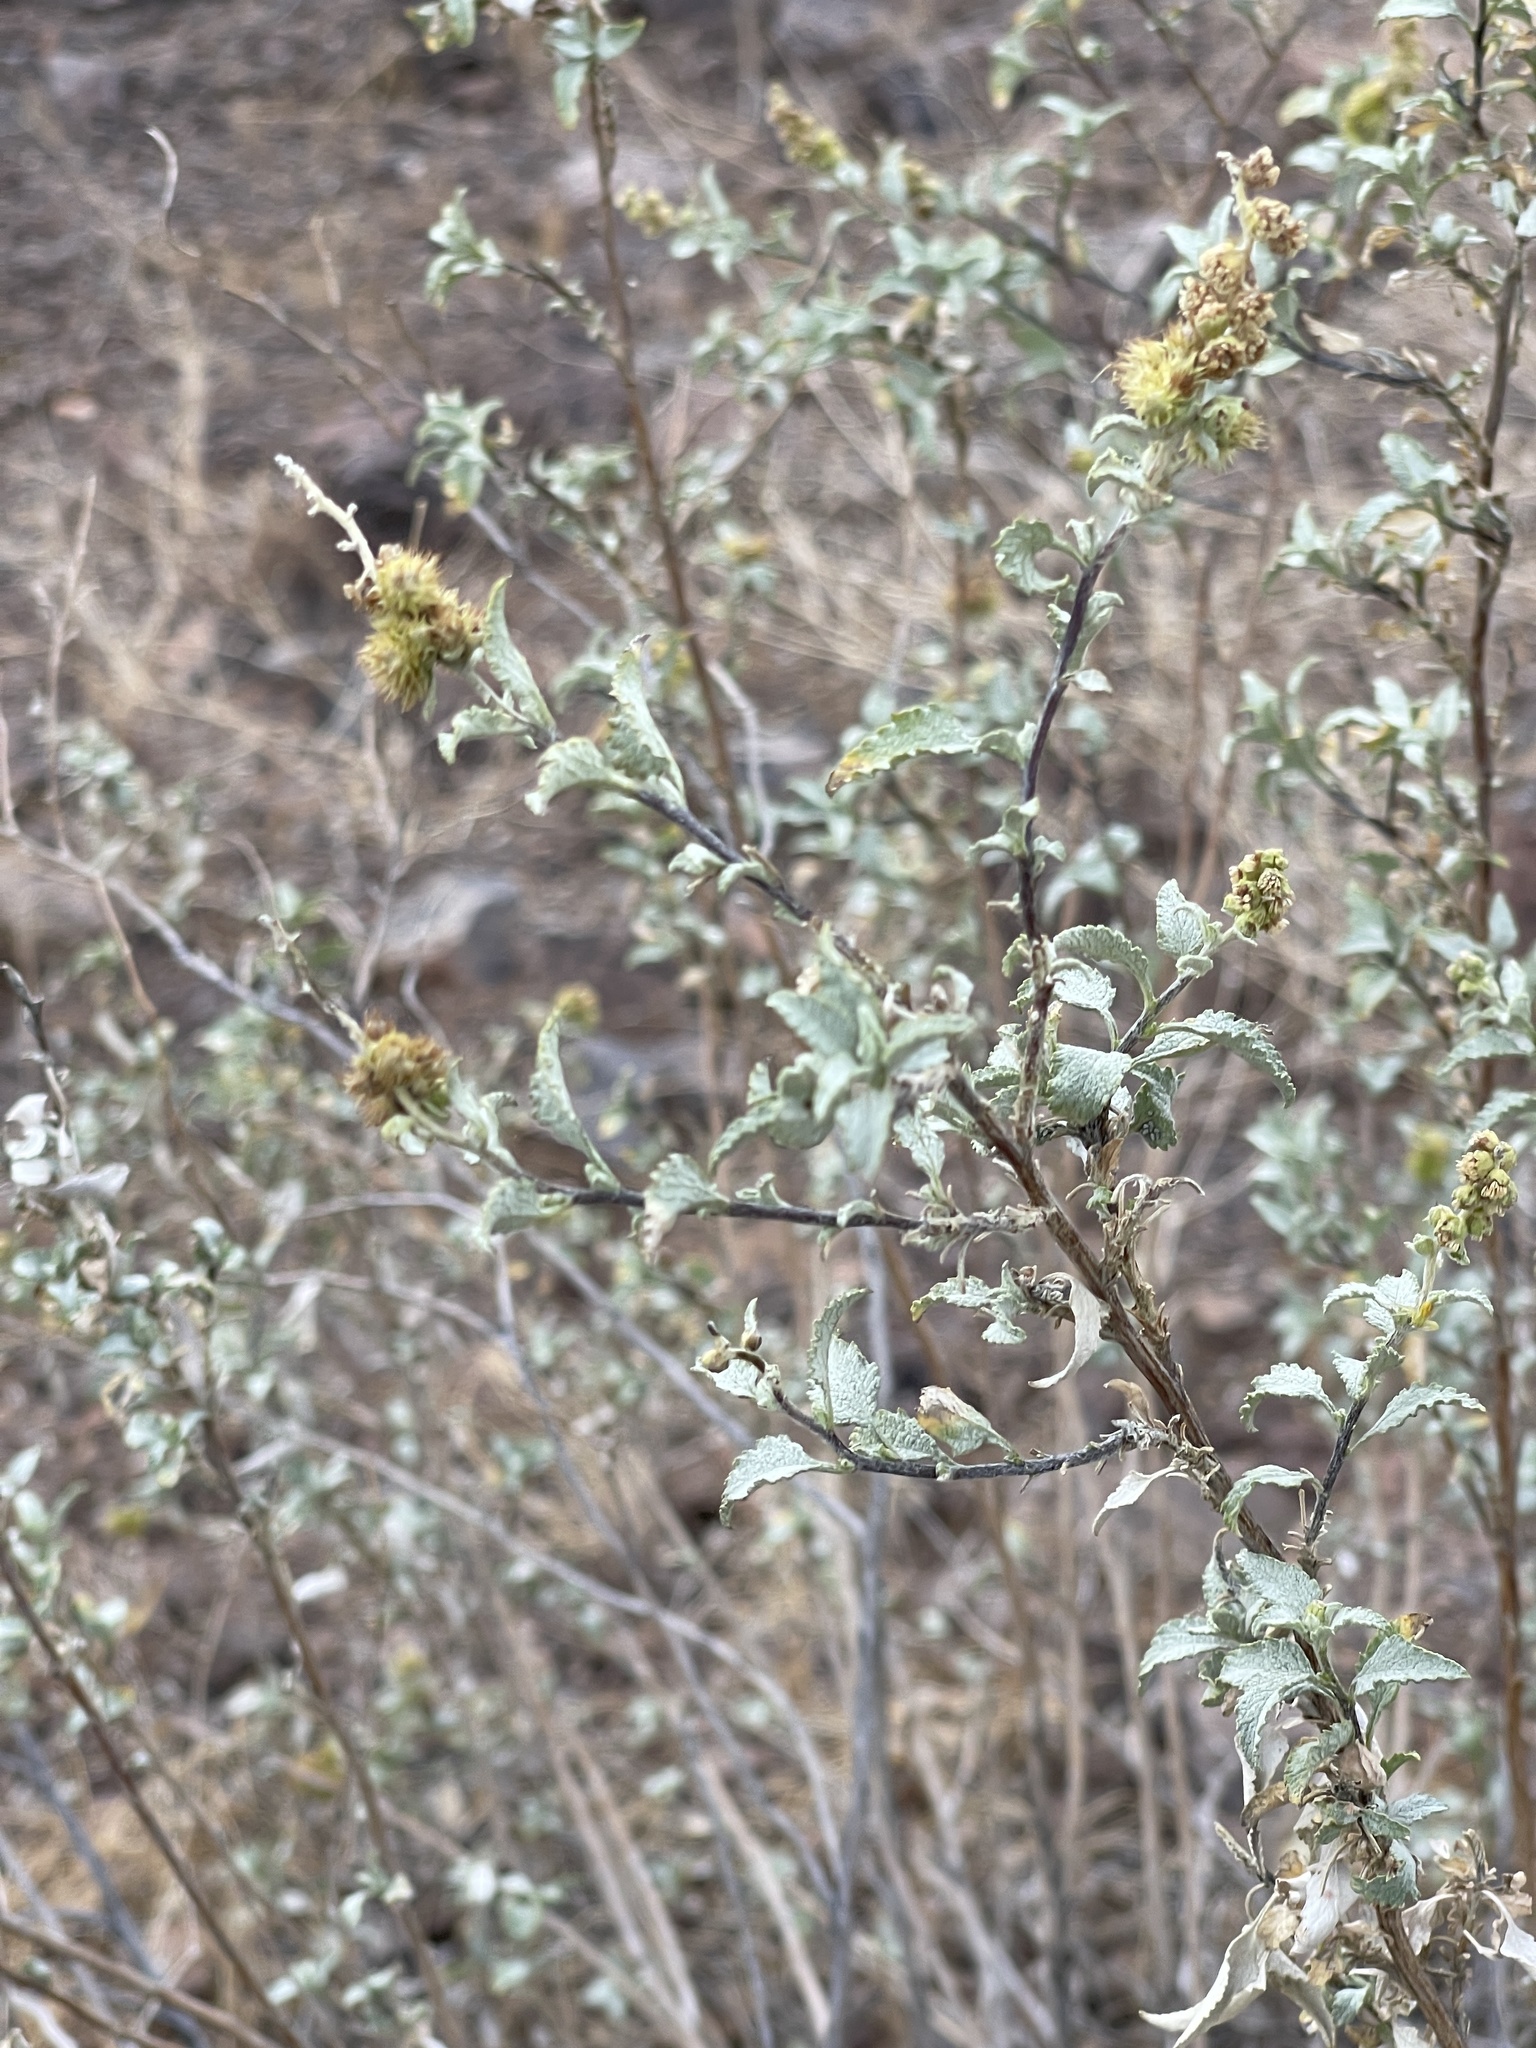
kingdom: Plantae
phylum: Tracheophyta
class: Magnoliopsida
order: Asterales
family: Asteraceae
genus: Ambrosia
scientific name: Ambrosia deltoidea
